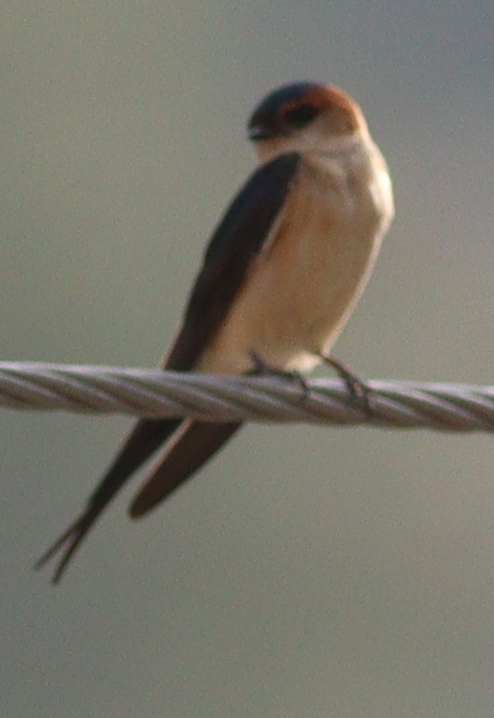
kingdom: Animalia
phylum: Chordata
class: Aves
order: Passeriformes
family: Hirundinidae
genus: Cecropis
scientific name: Cecropis daurica
